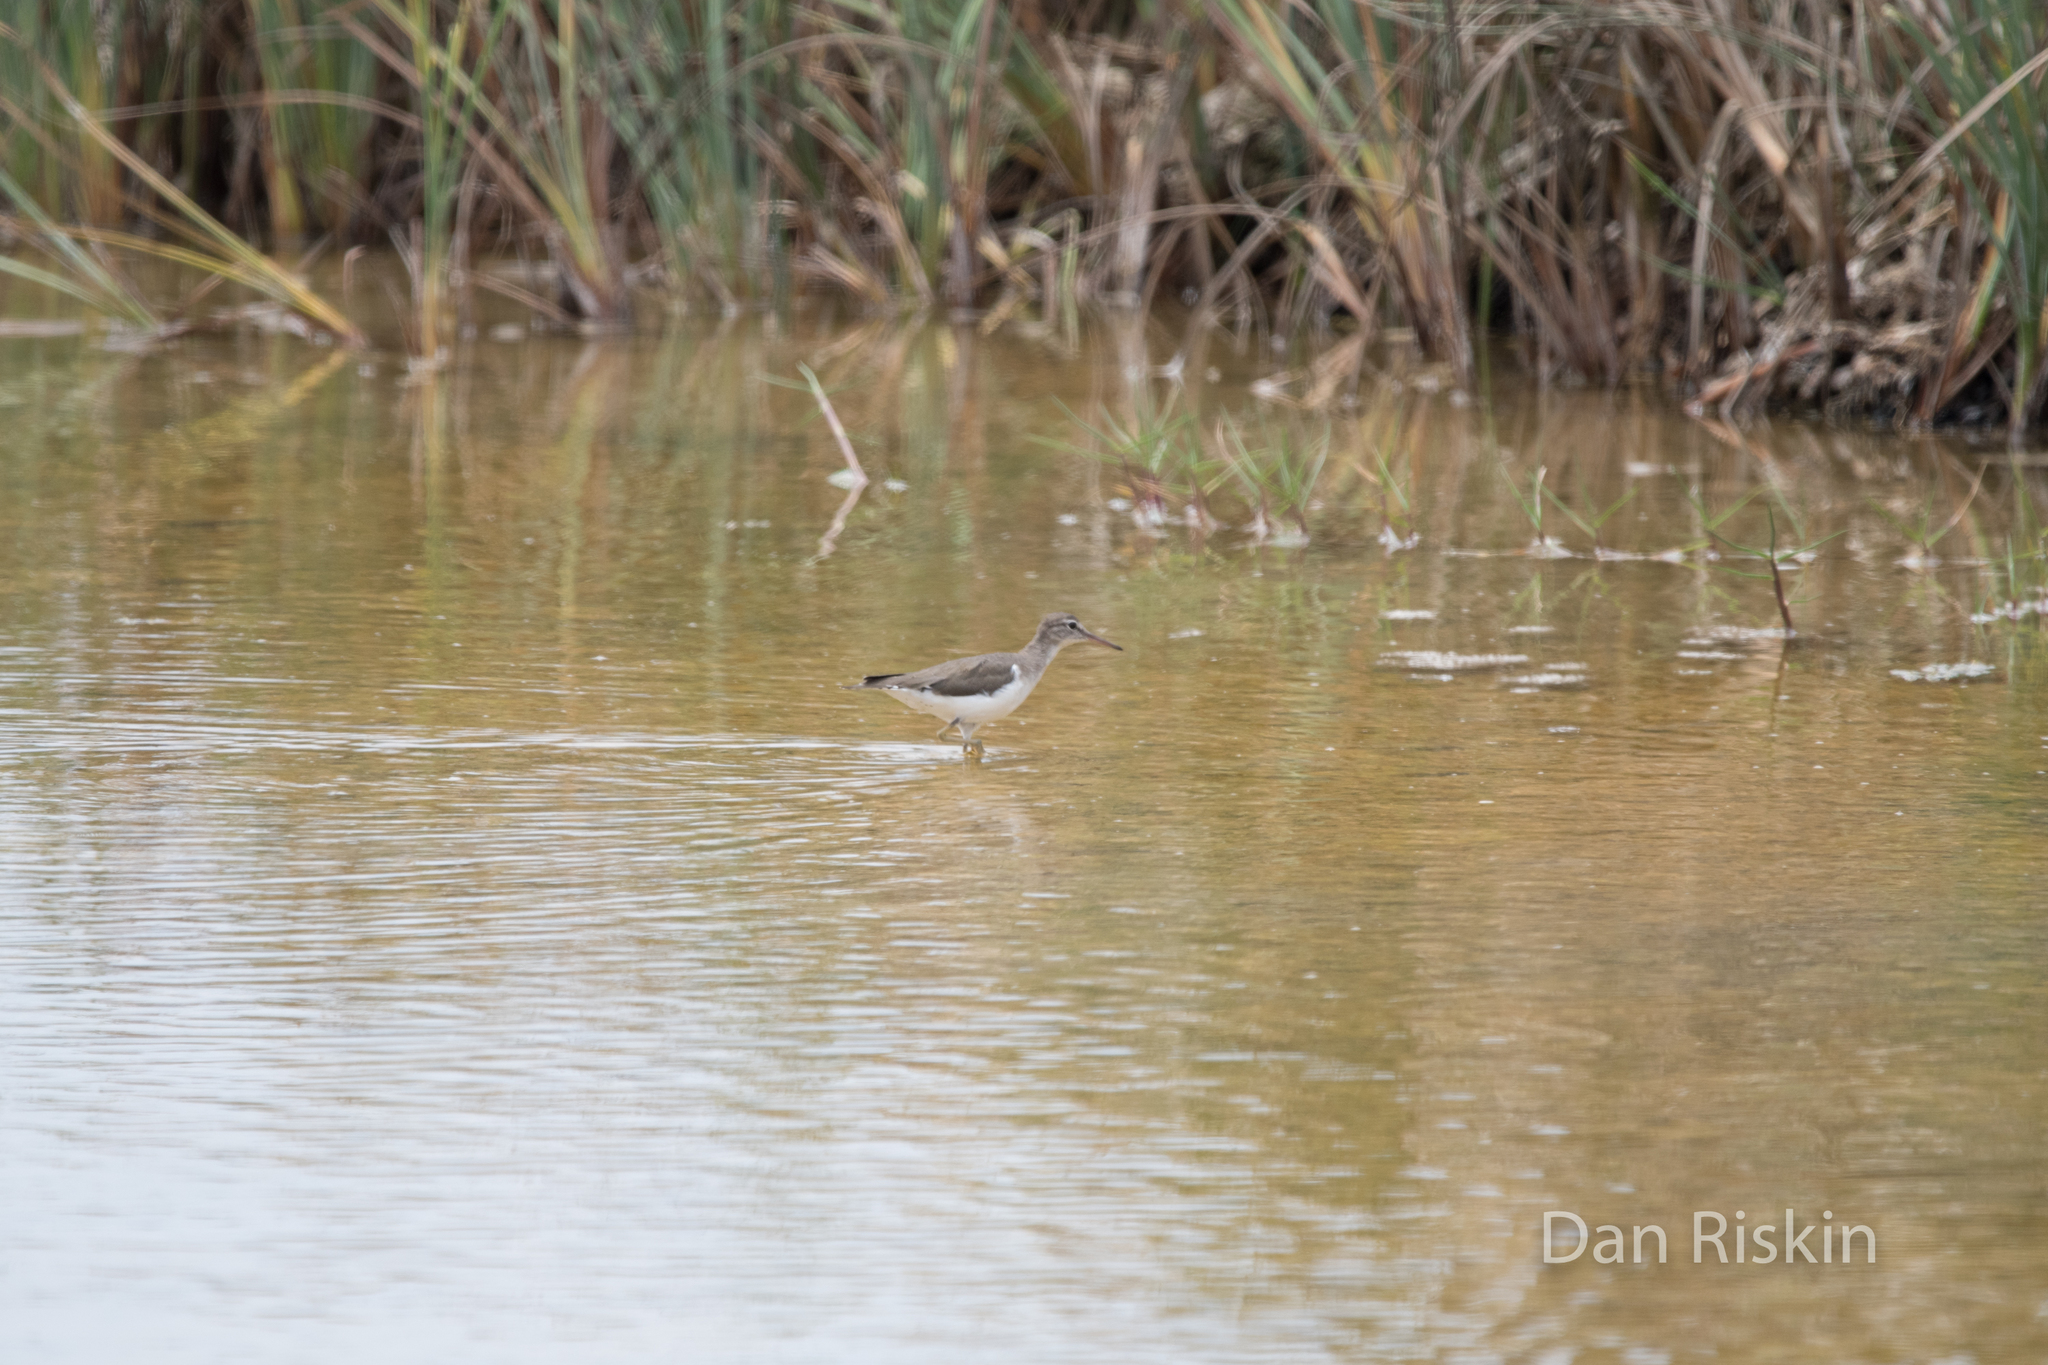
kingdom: Animalia
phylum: Chordata
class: Aves
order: Charadriiformes
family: Scolopacidae
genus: Actitis
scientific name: Actitis macularius
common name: Spotted sandpiper
